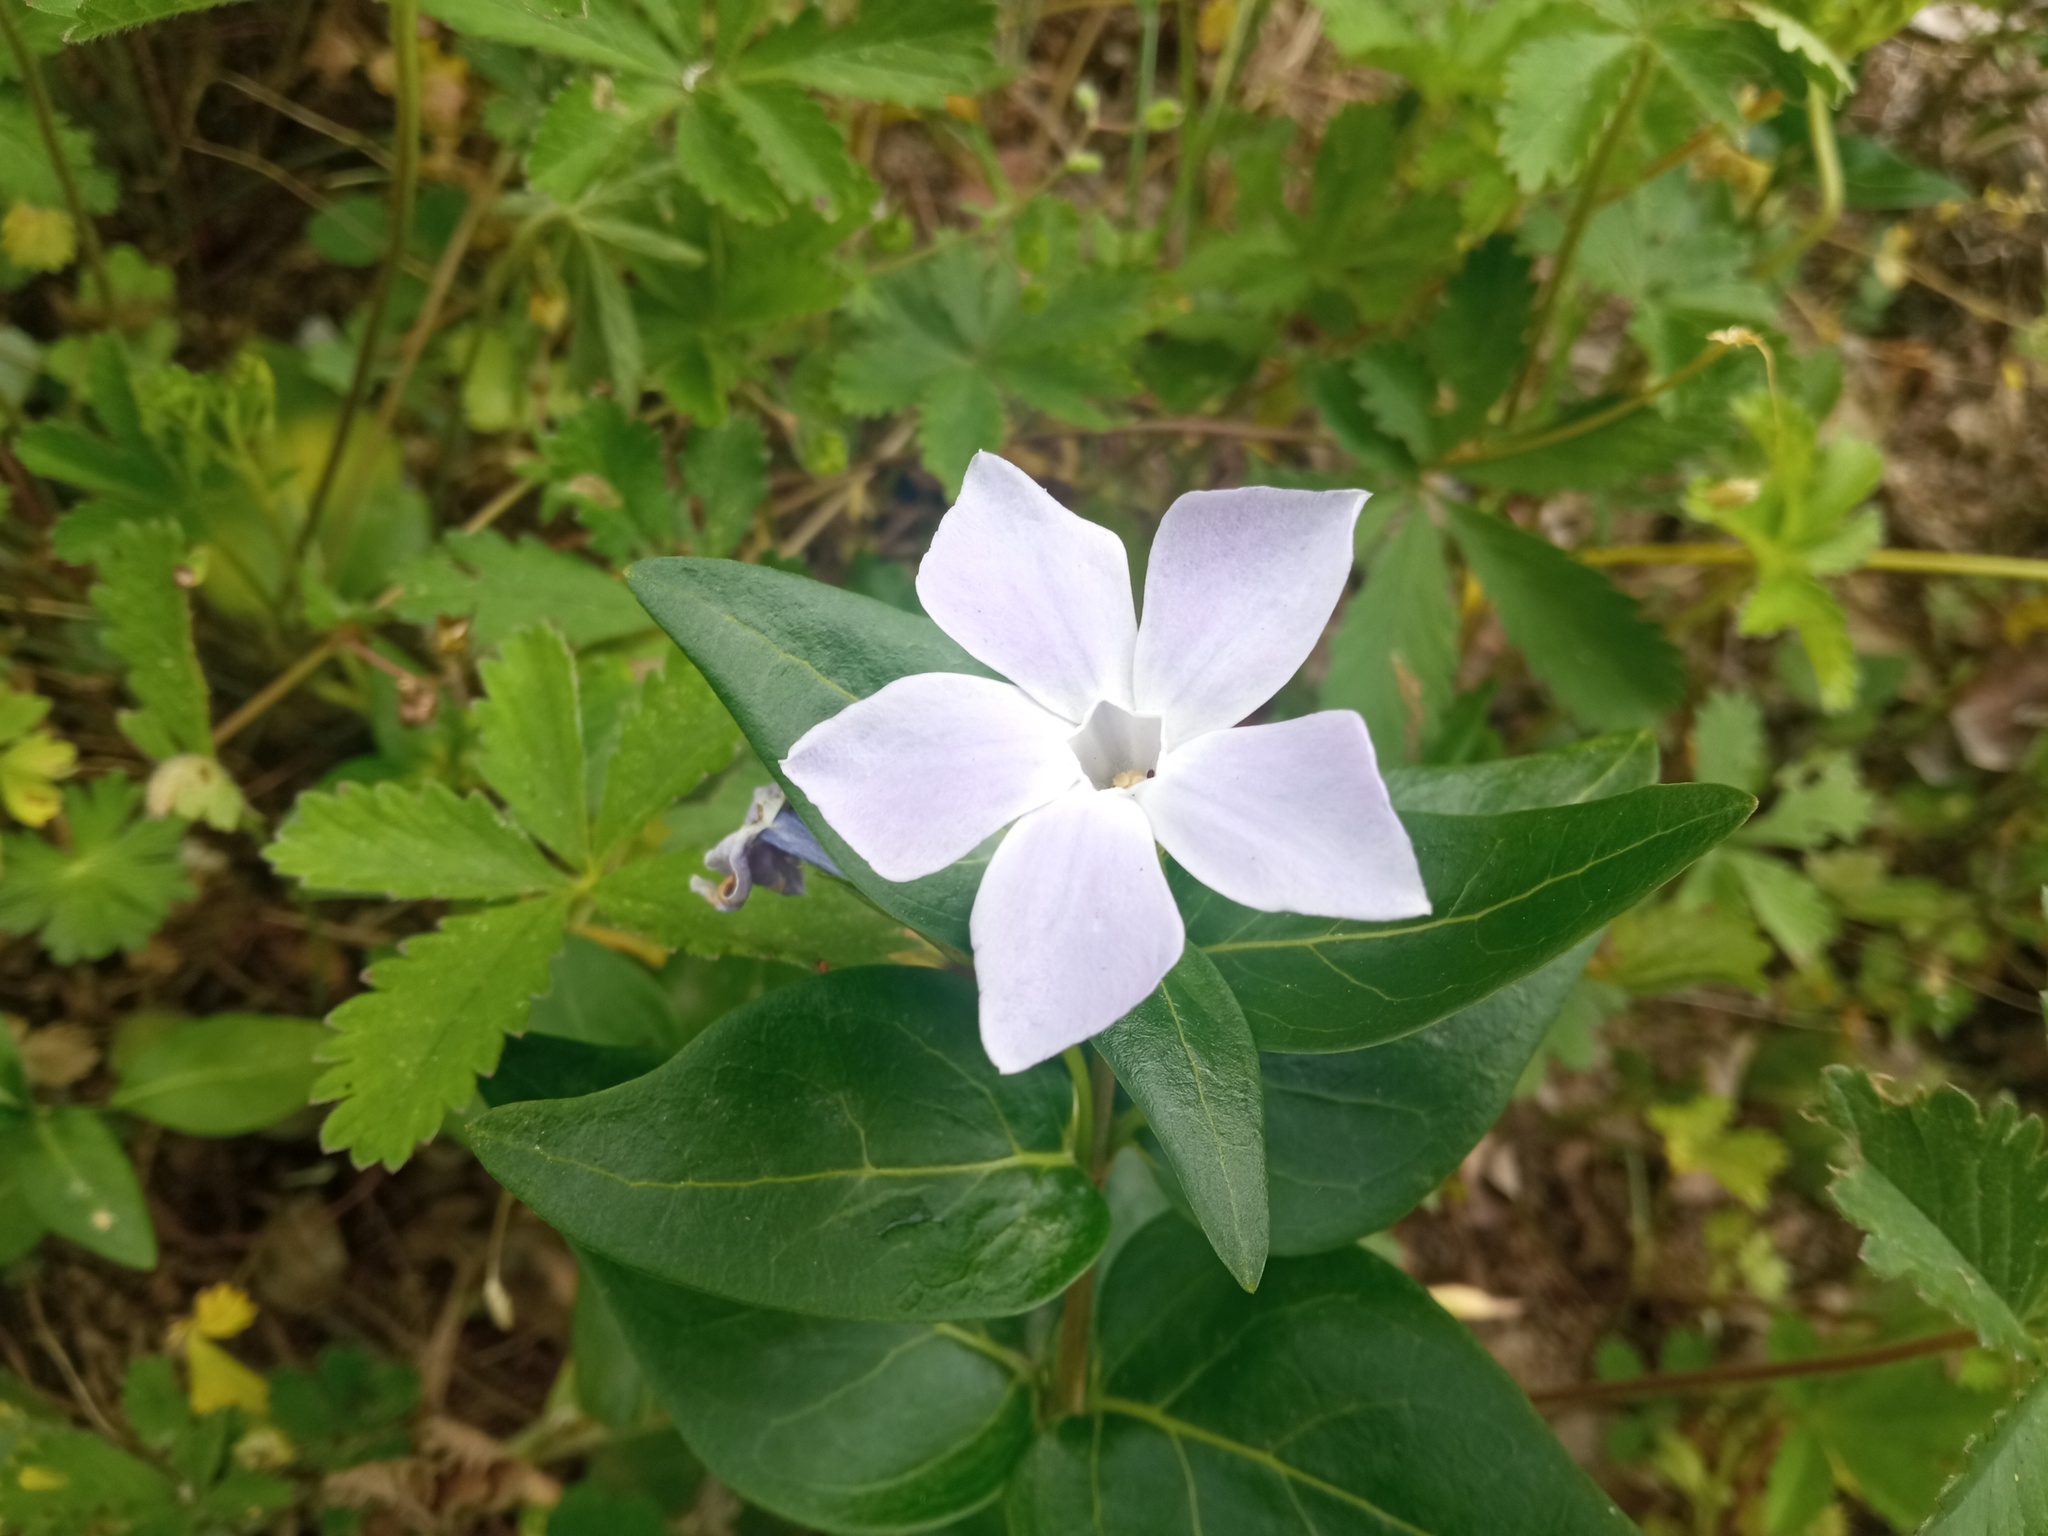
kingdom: Plantae
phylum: Tracheophyta
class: Magnoliopsida
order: Gentianales
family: Apocynaceae
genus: Vinca
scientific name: Vinca difformis
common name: Intermediate periwinkle
